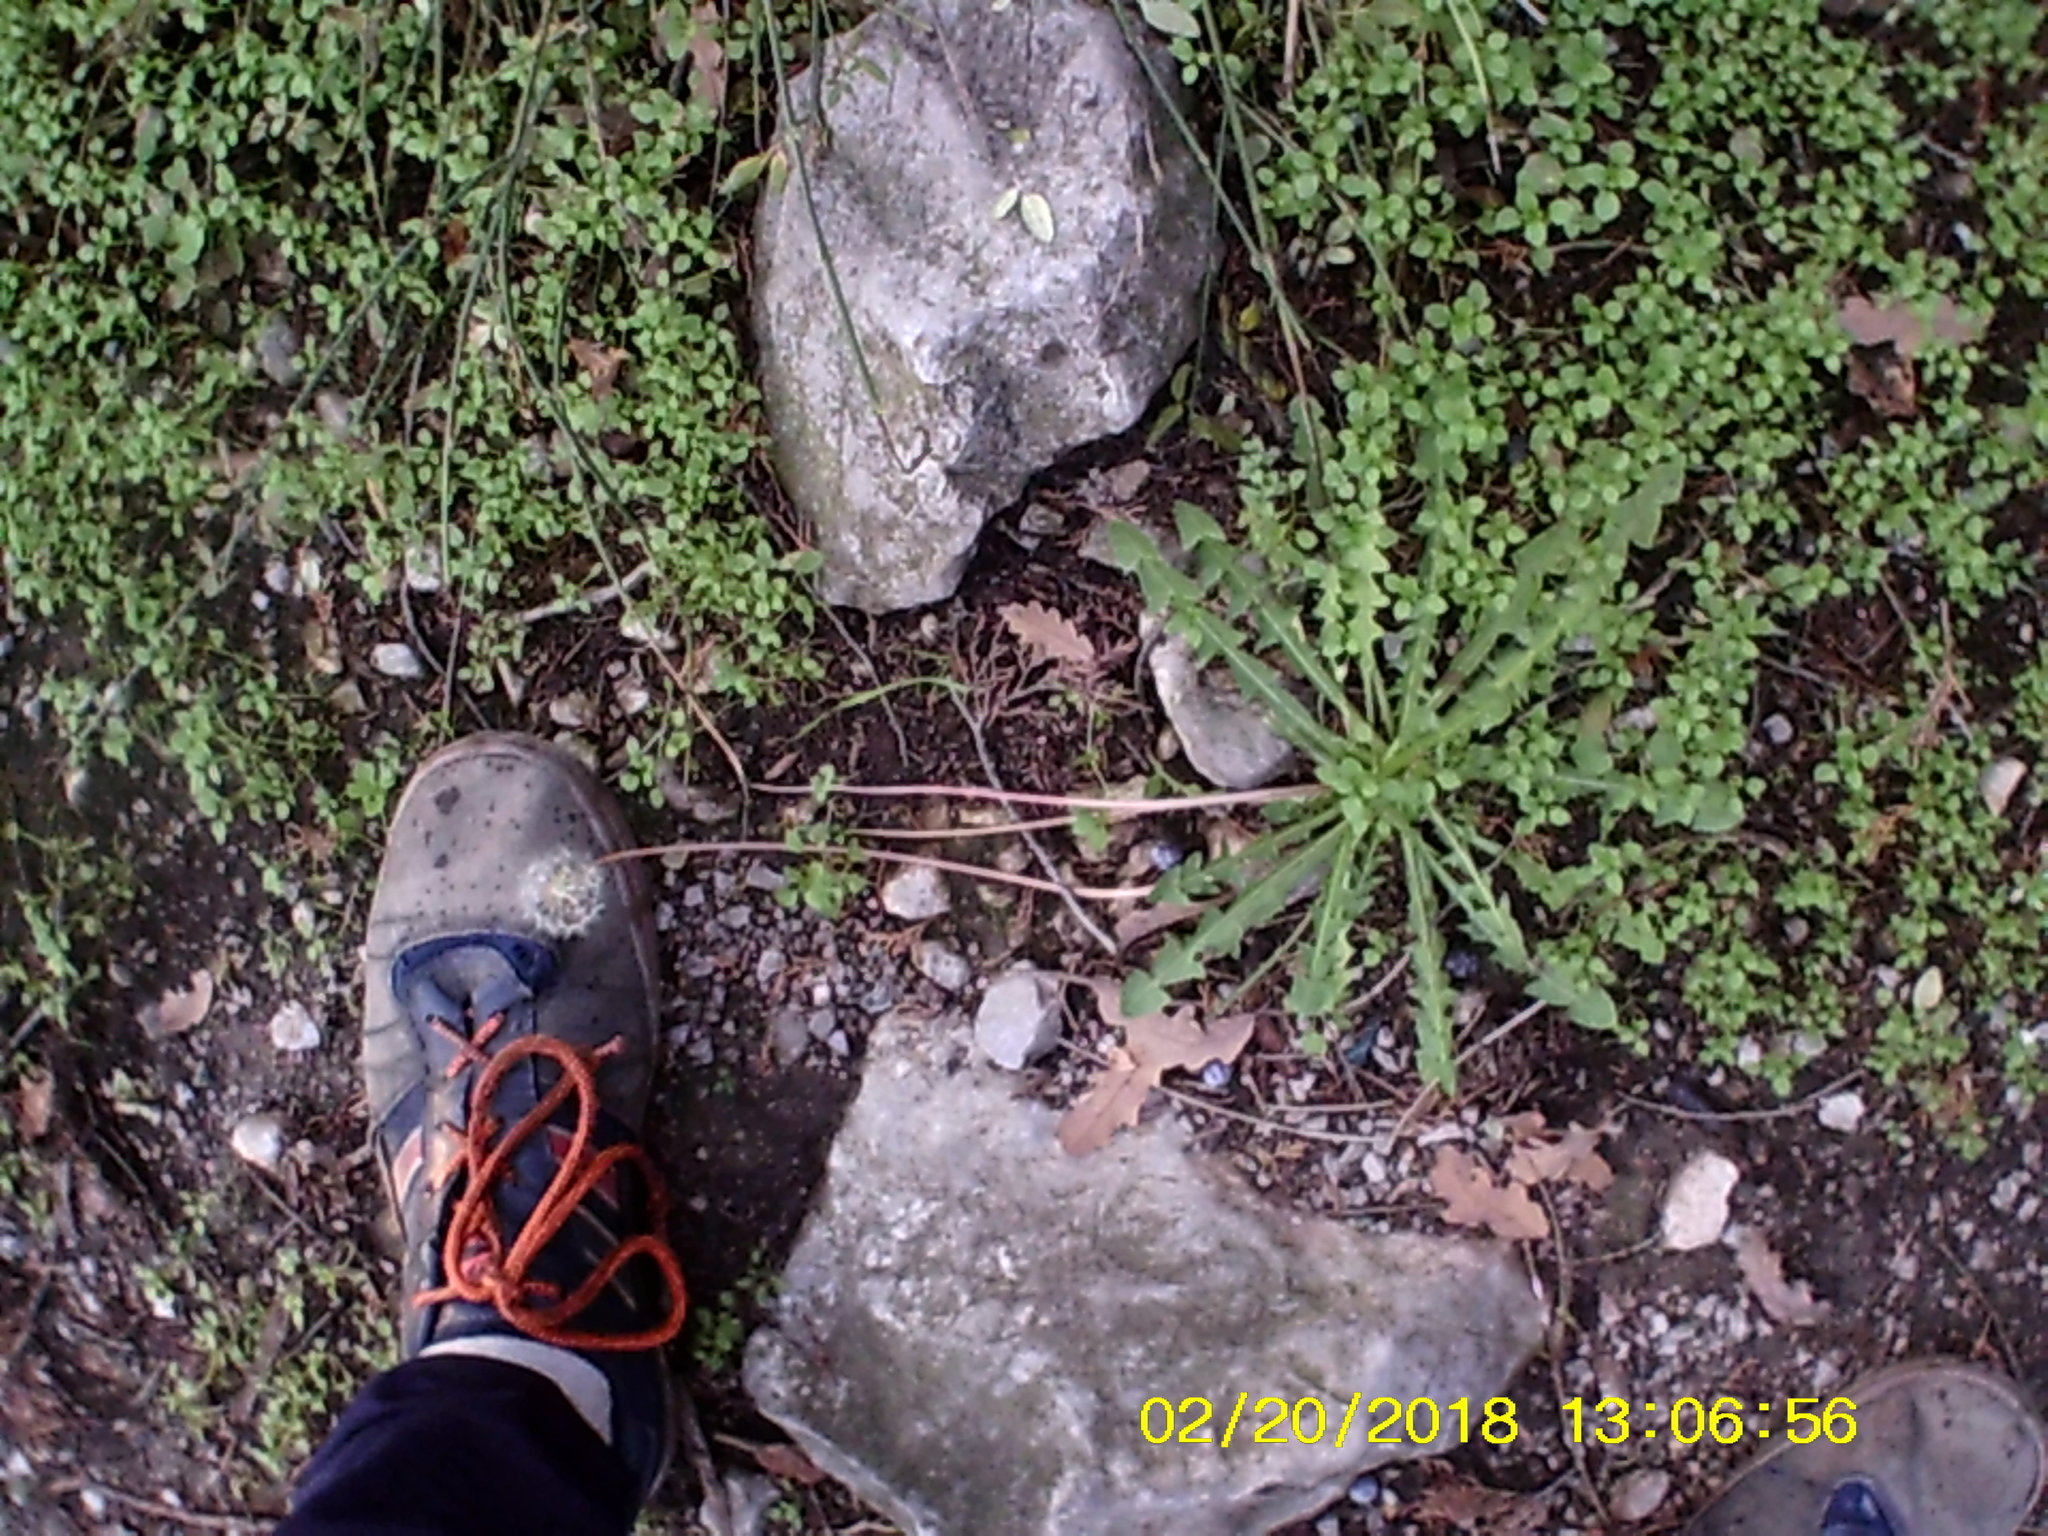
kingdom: Plantae
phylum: Tracheophyta
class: Magnoliopsida
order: Asterales
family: Asteraceae
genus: Taraxacum
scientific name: Taraxacum hybernum
